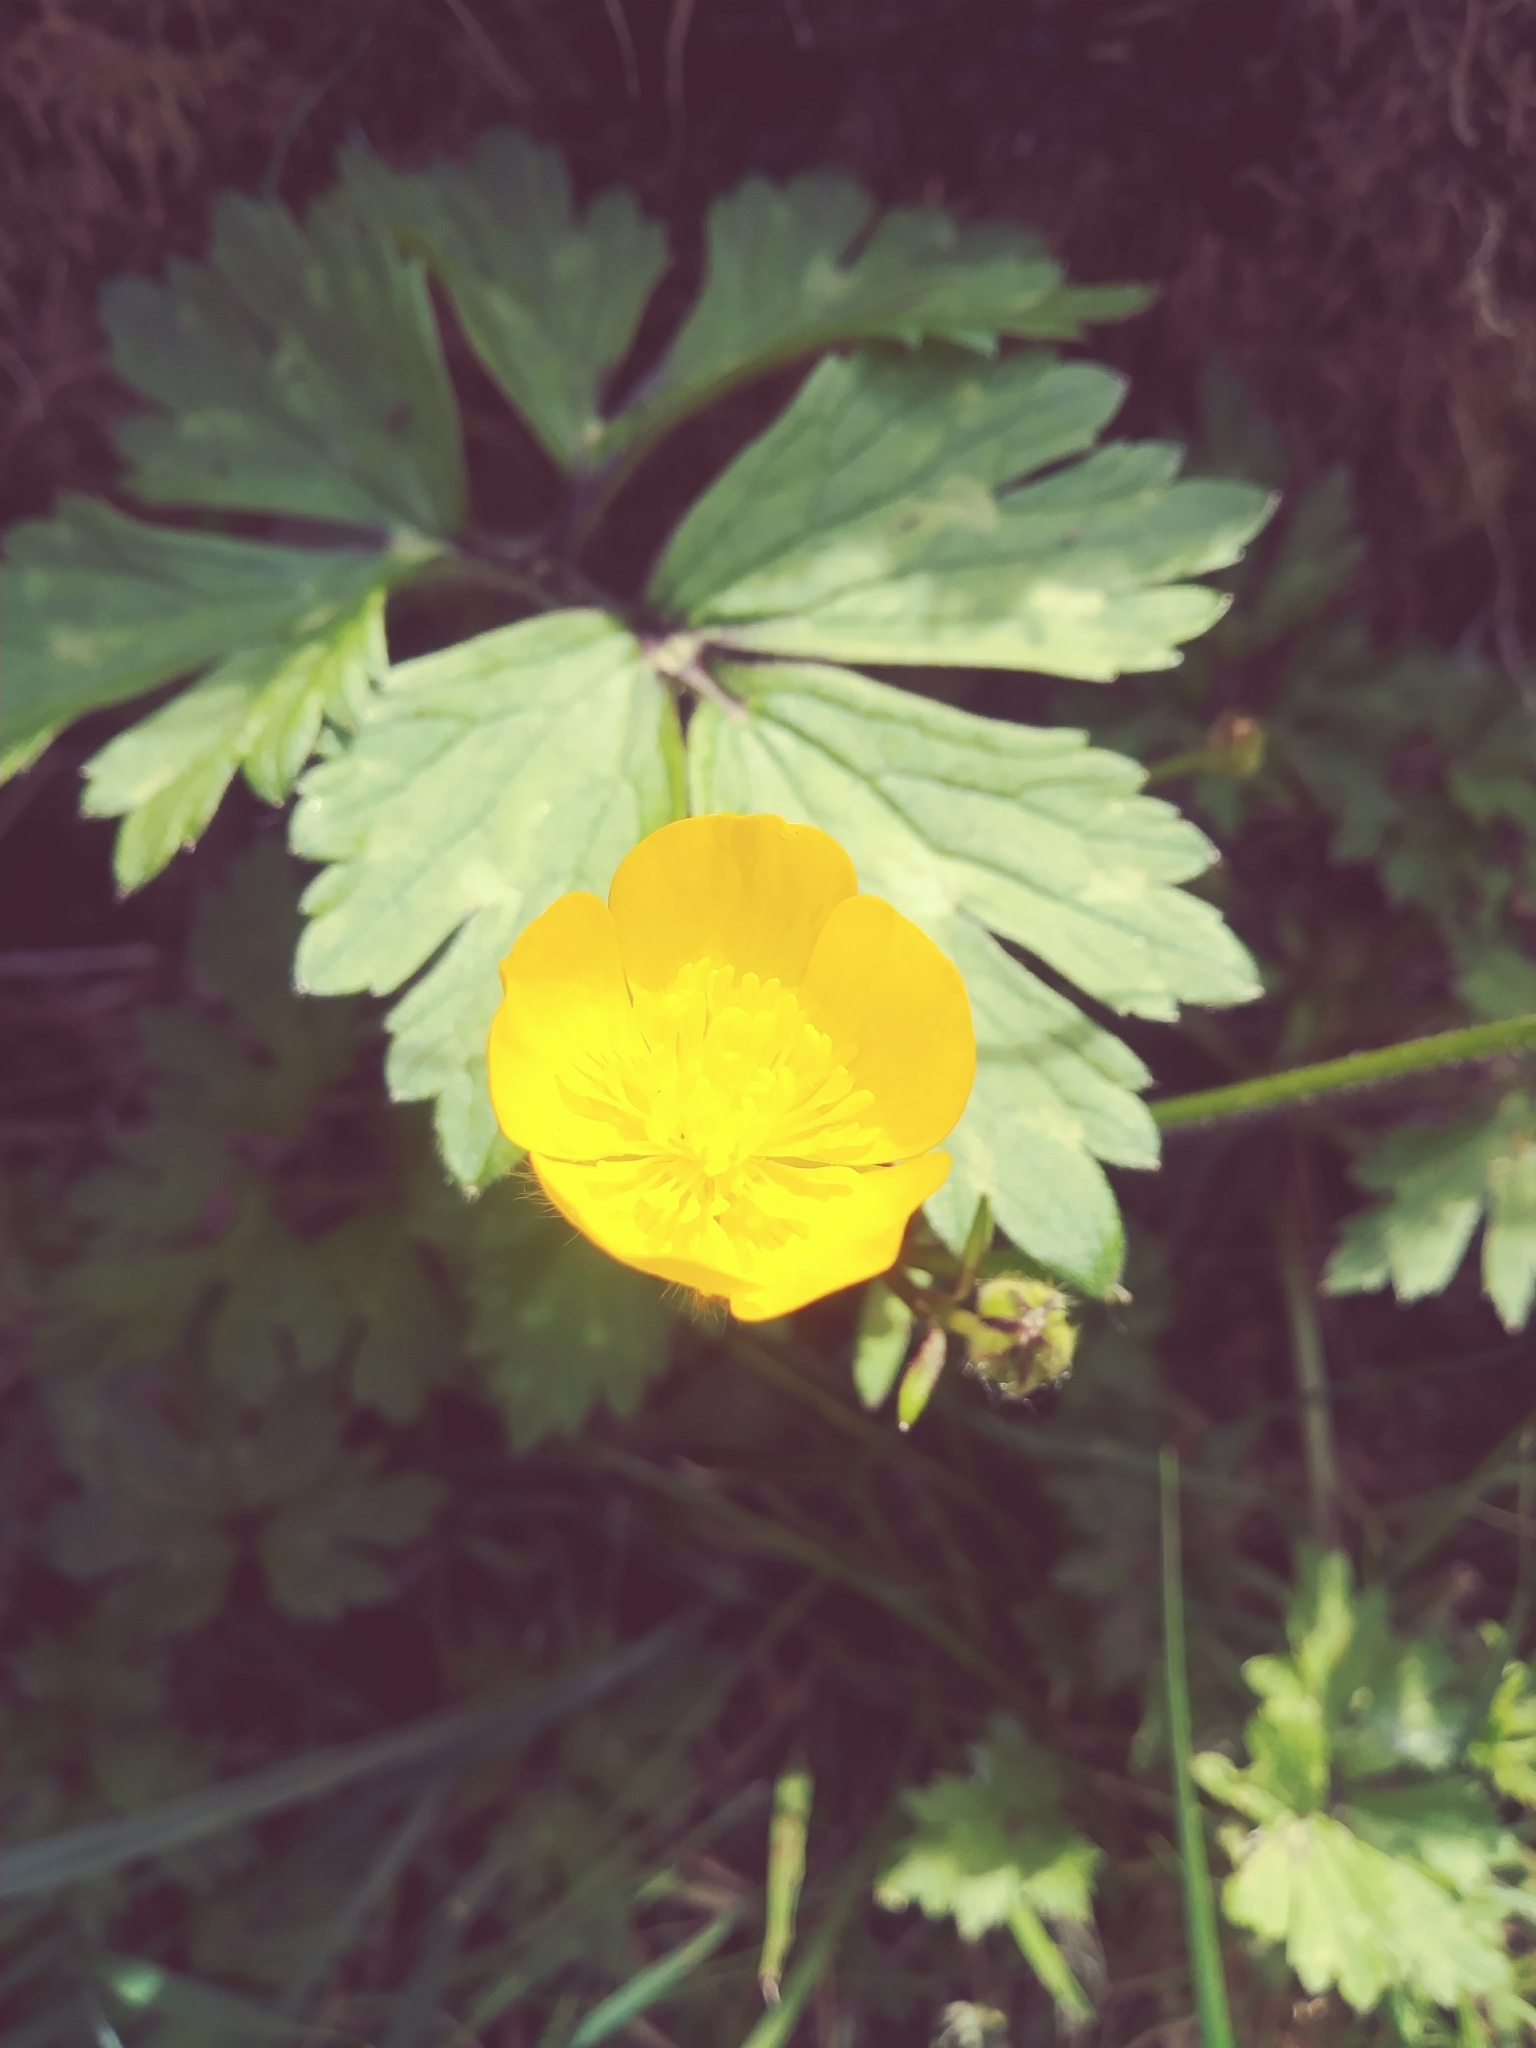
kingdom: Plantae
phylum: Tracheophyta
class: Magnoliopsida
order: Ranunculales
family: Ranunculaceae
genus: Ranunculus
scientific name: Ranunculus repens
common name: Creeping buttercup
